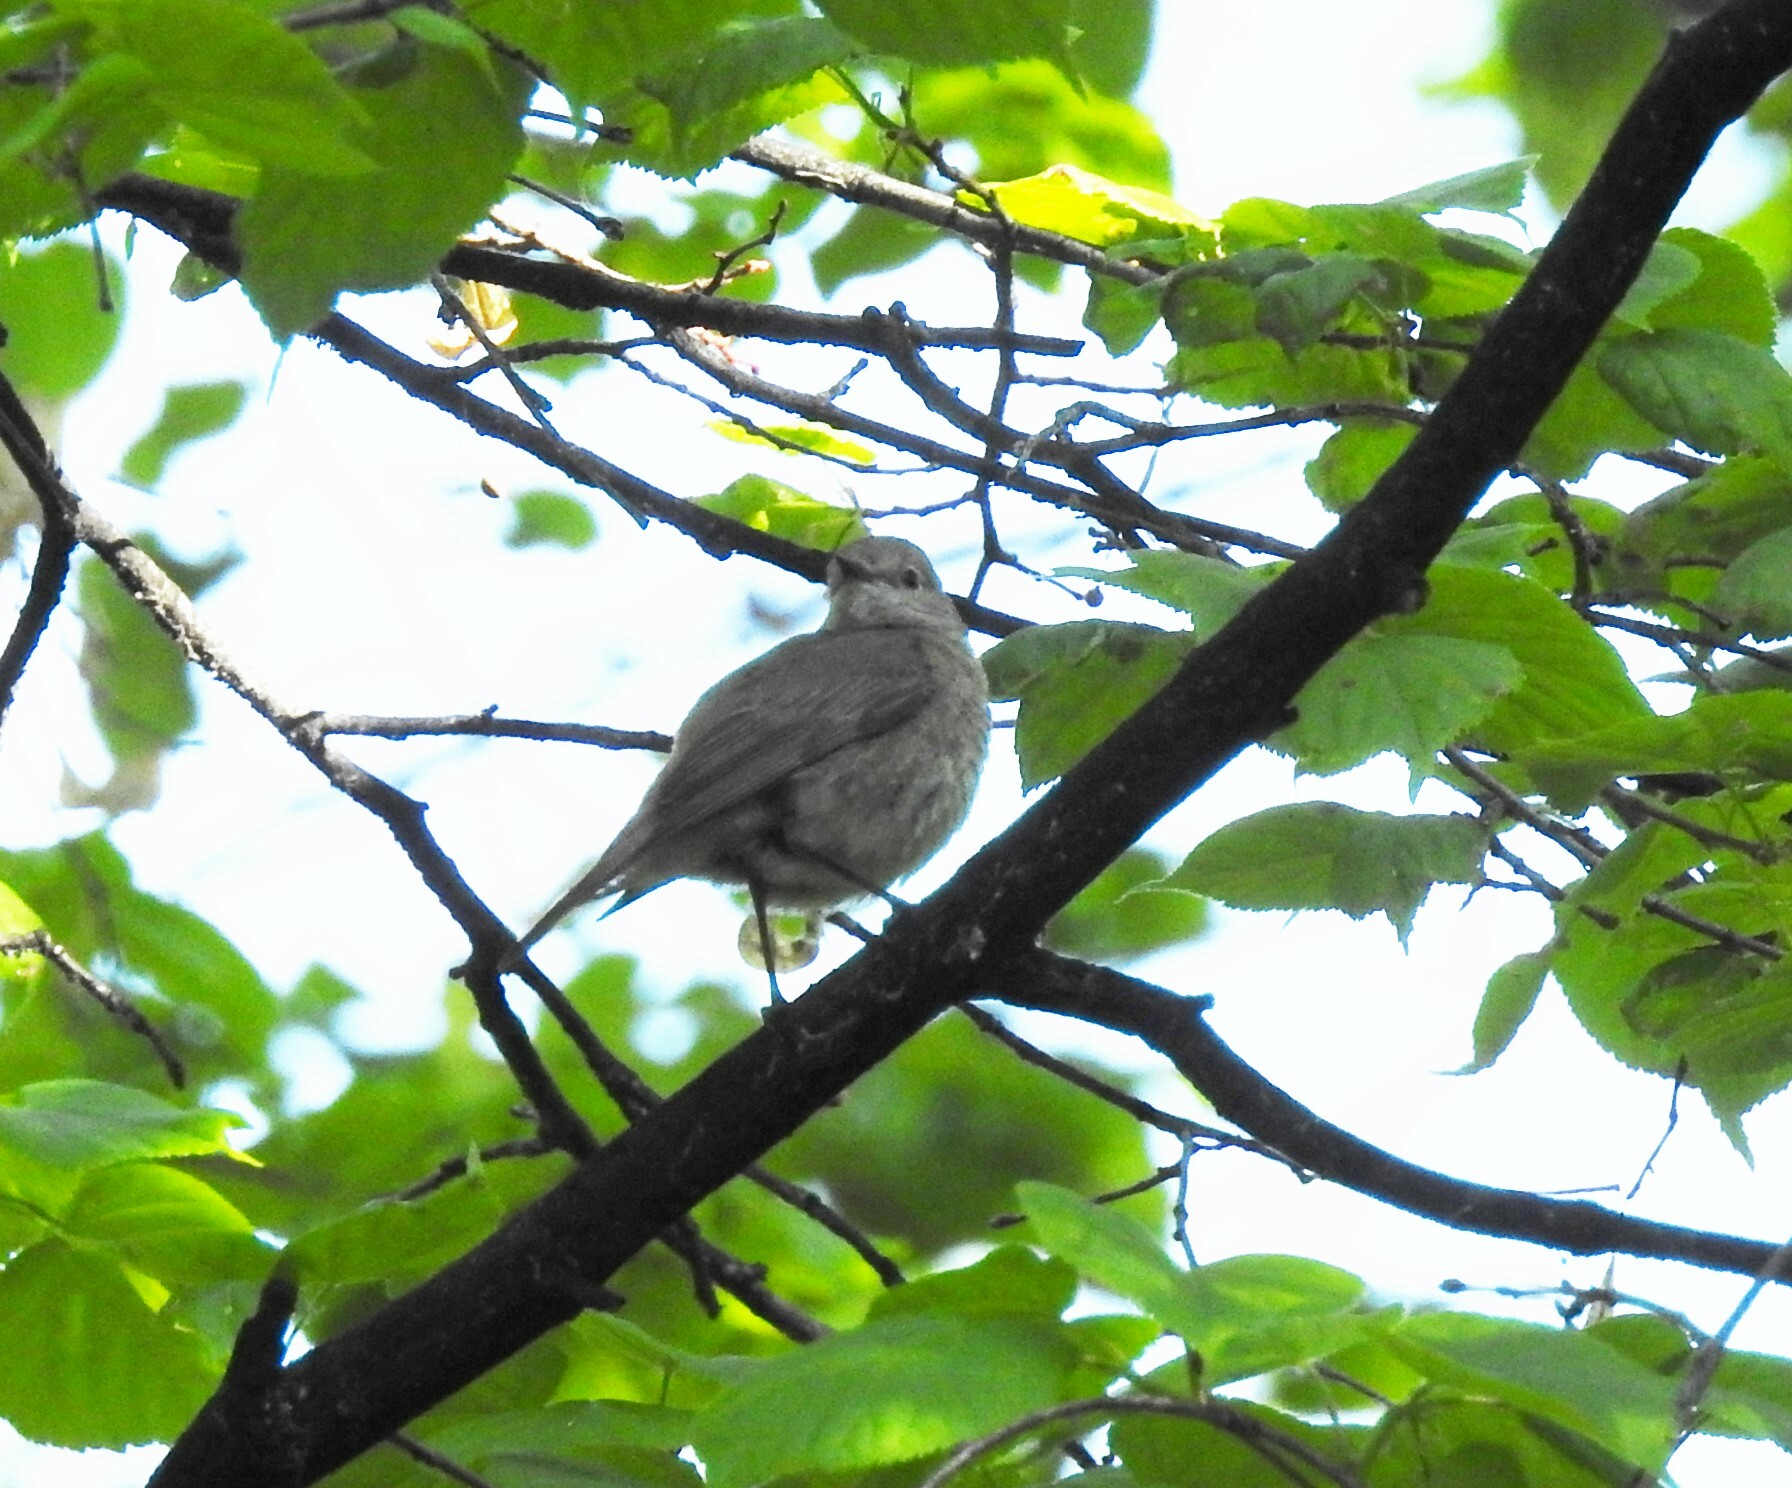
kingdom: Animalia
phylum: Chordata
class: Aves
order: Passeriformes
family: Muscicapidae
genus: Muscicapa
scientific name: Muscicapa striata
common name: Spotted flycatcher
